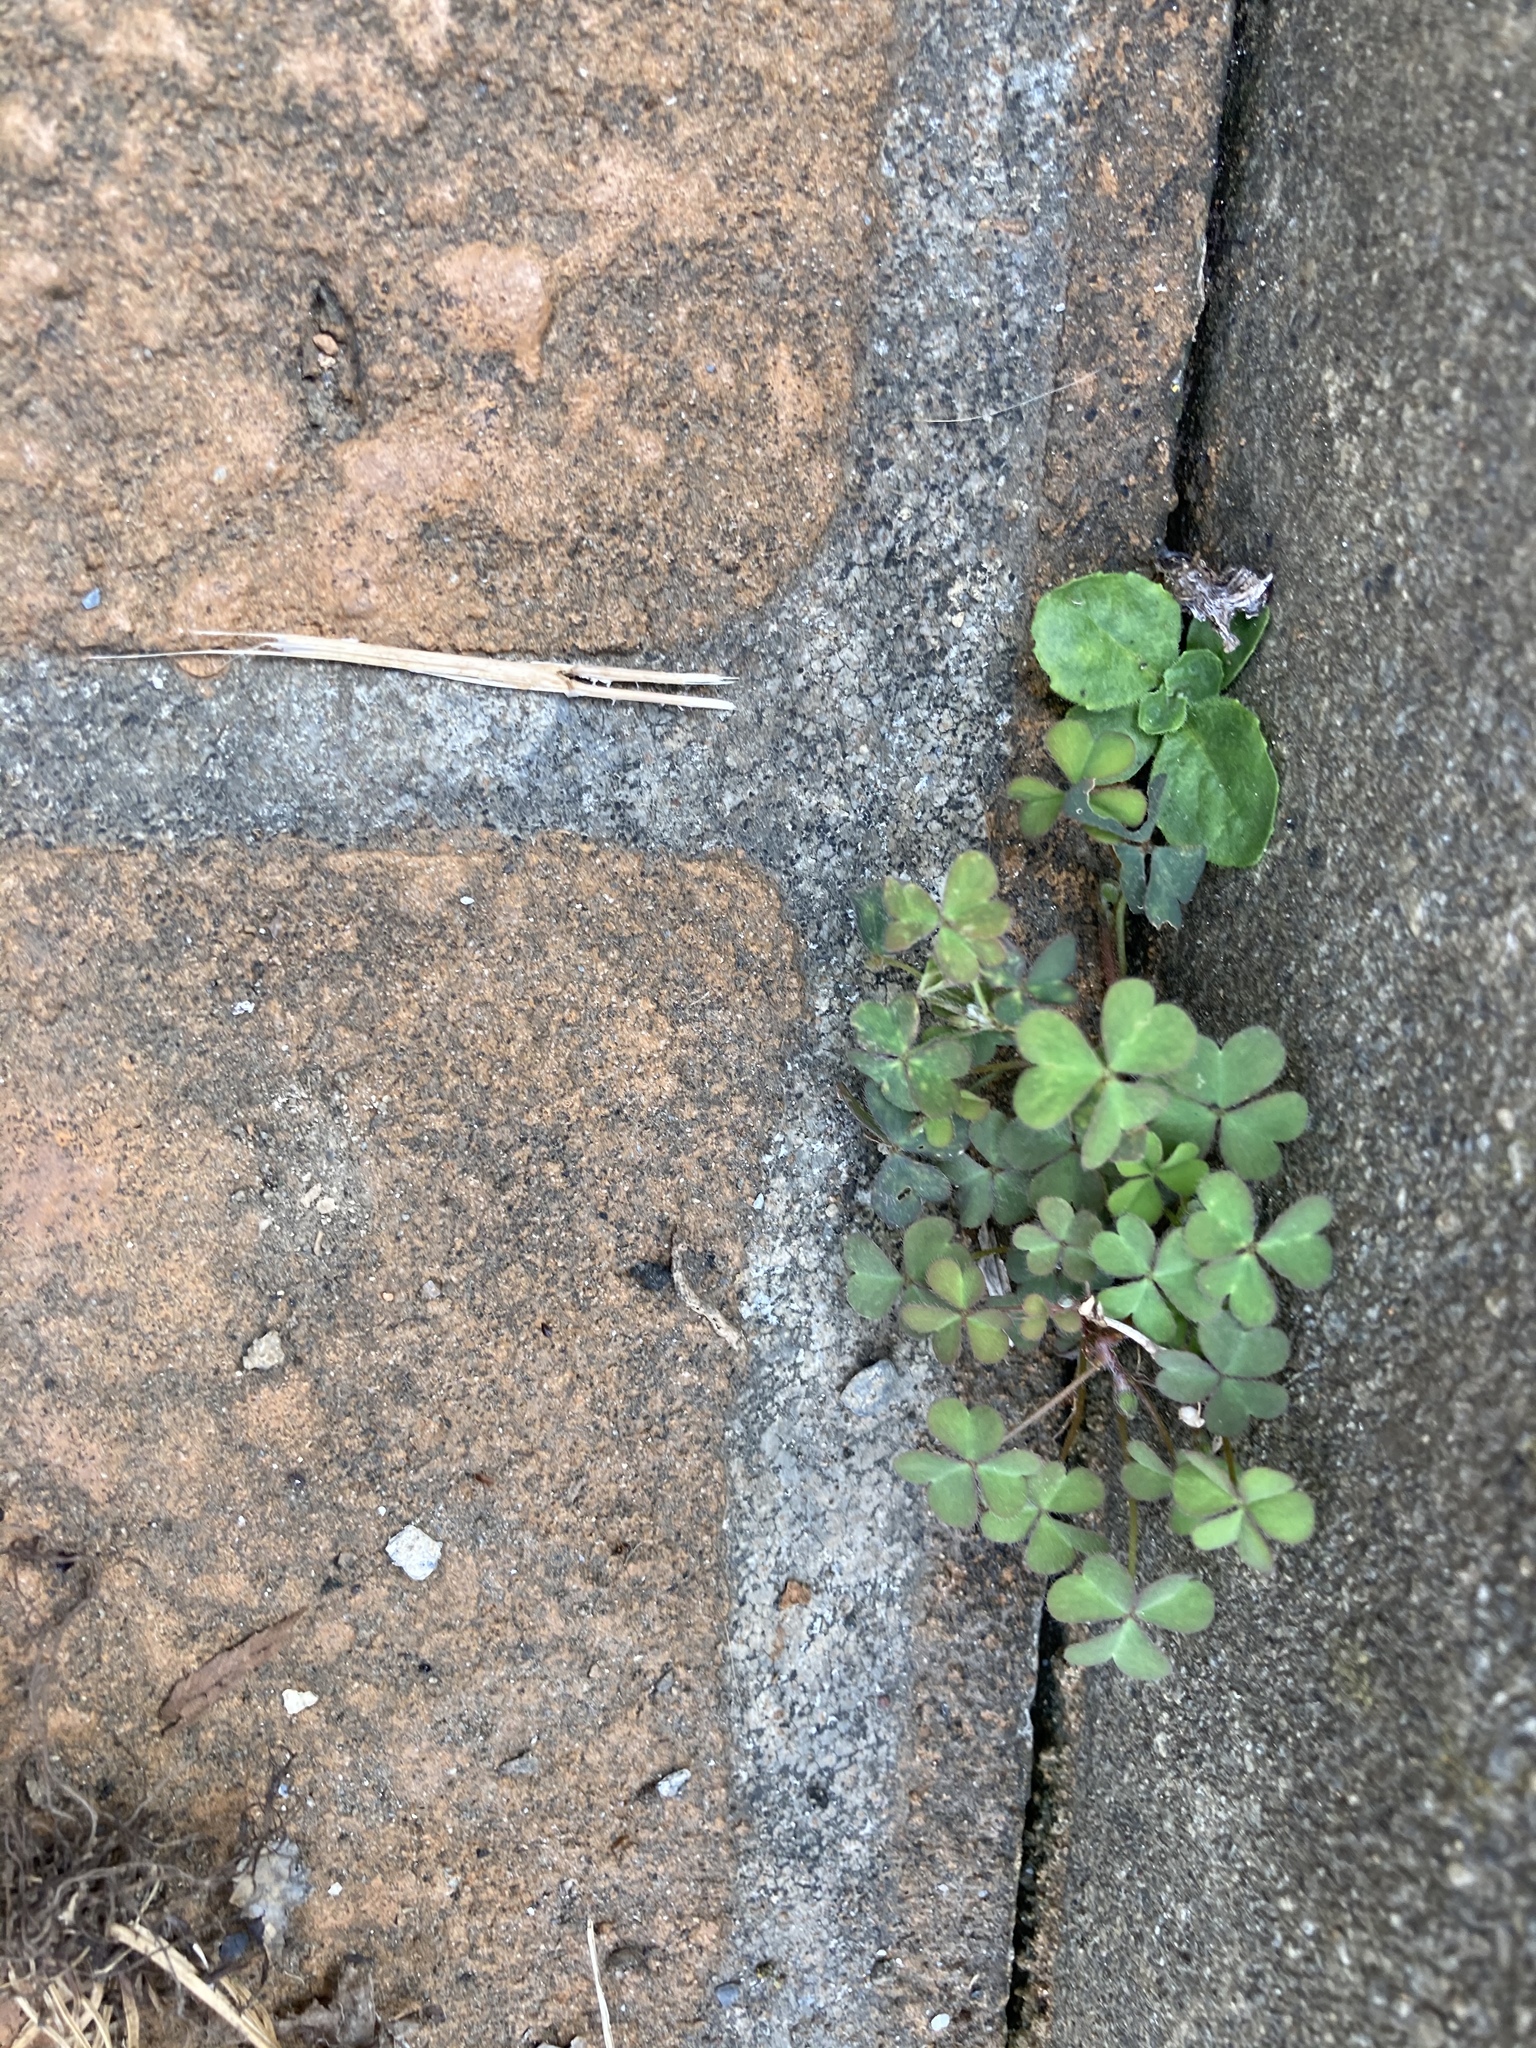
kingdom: Plantae
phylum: Tracheophyta
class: Magnoliopsida
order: Oxalidales
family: Oxalidaceae
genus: Oxalis
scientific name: Oxalis corniculata
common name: Procumbent yellow-sorrel
